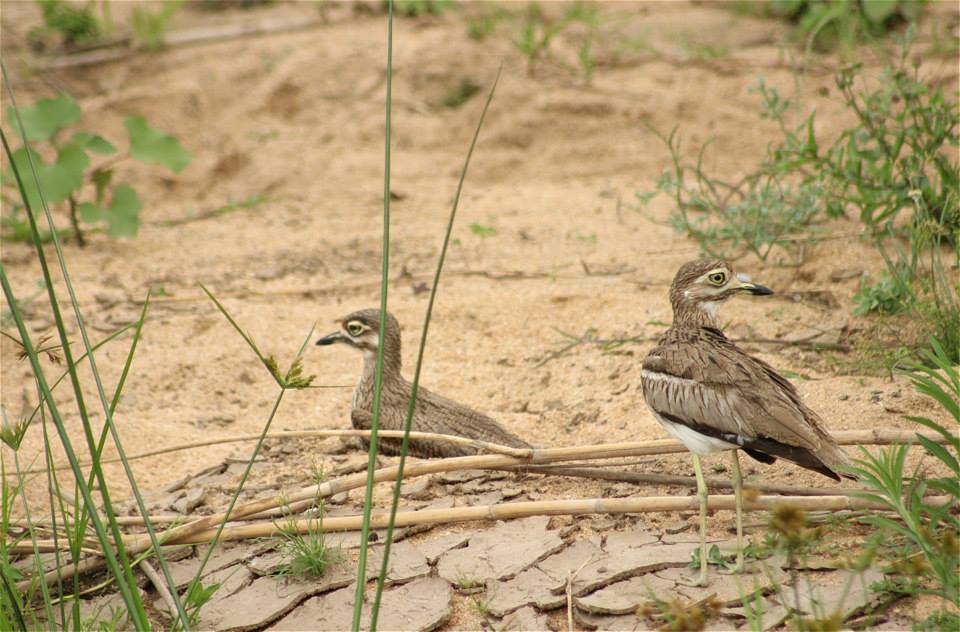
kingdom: Animalia
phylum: Chordata
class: Aves
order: Charadriiformes
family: Burhinidae
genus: Burhinus
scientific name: Burhinus vermiculatus
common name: Water thick-knee
